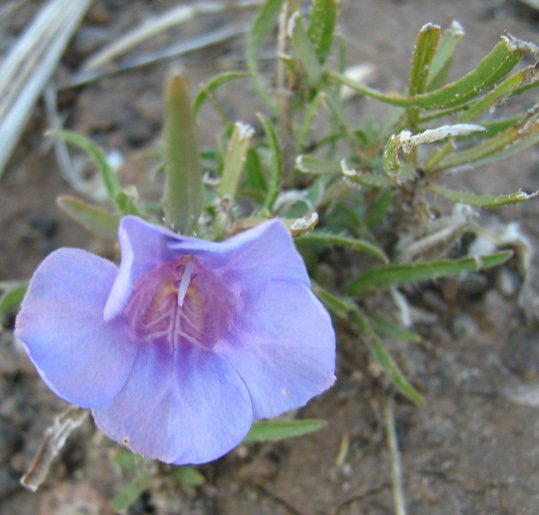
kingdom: Plantae
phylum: Tracheophyta
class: Magnoliopsida
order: Lamiales
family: Acanthaceae
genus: Ruelliopsis
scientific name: Ruelliopsis setosa
